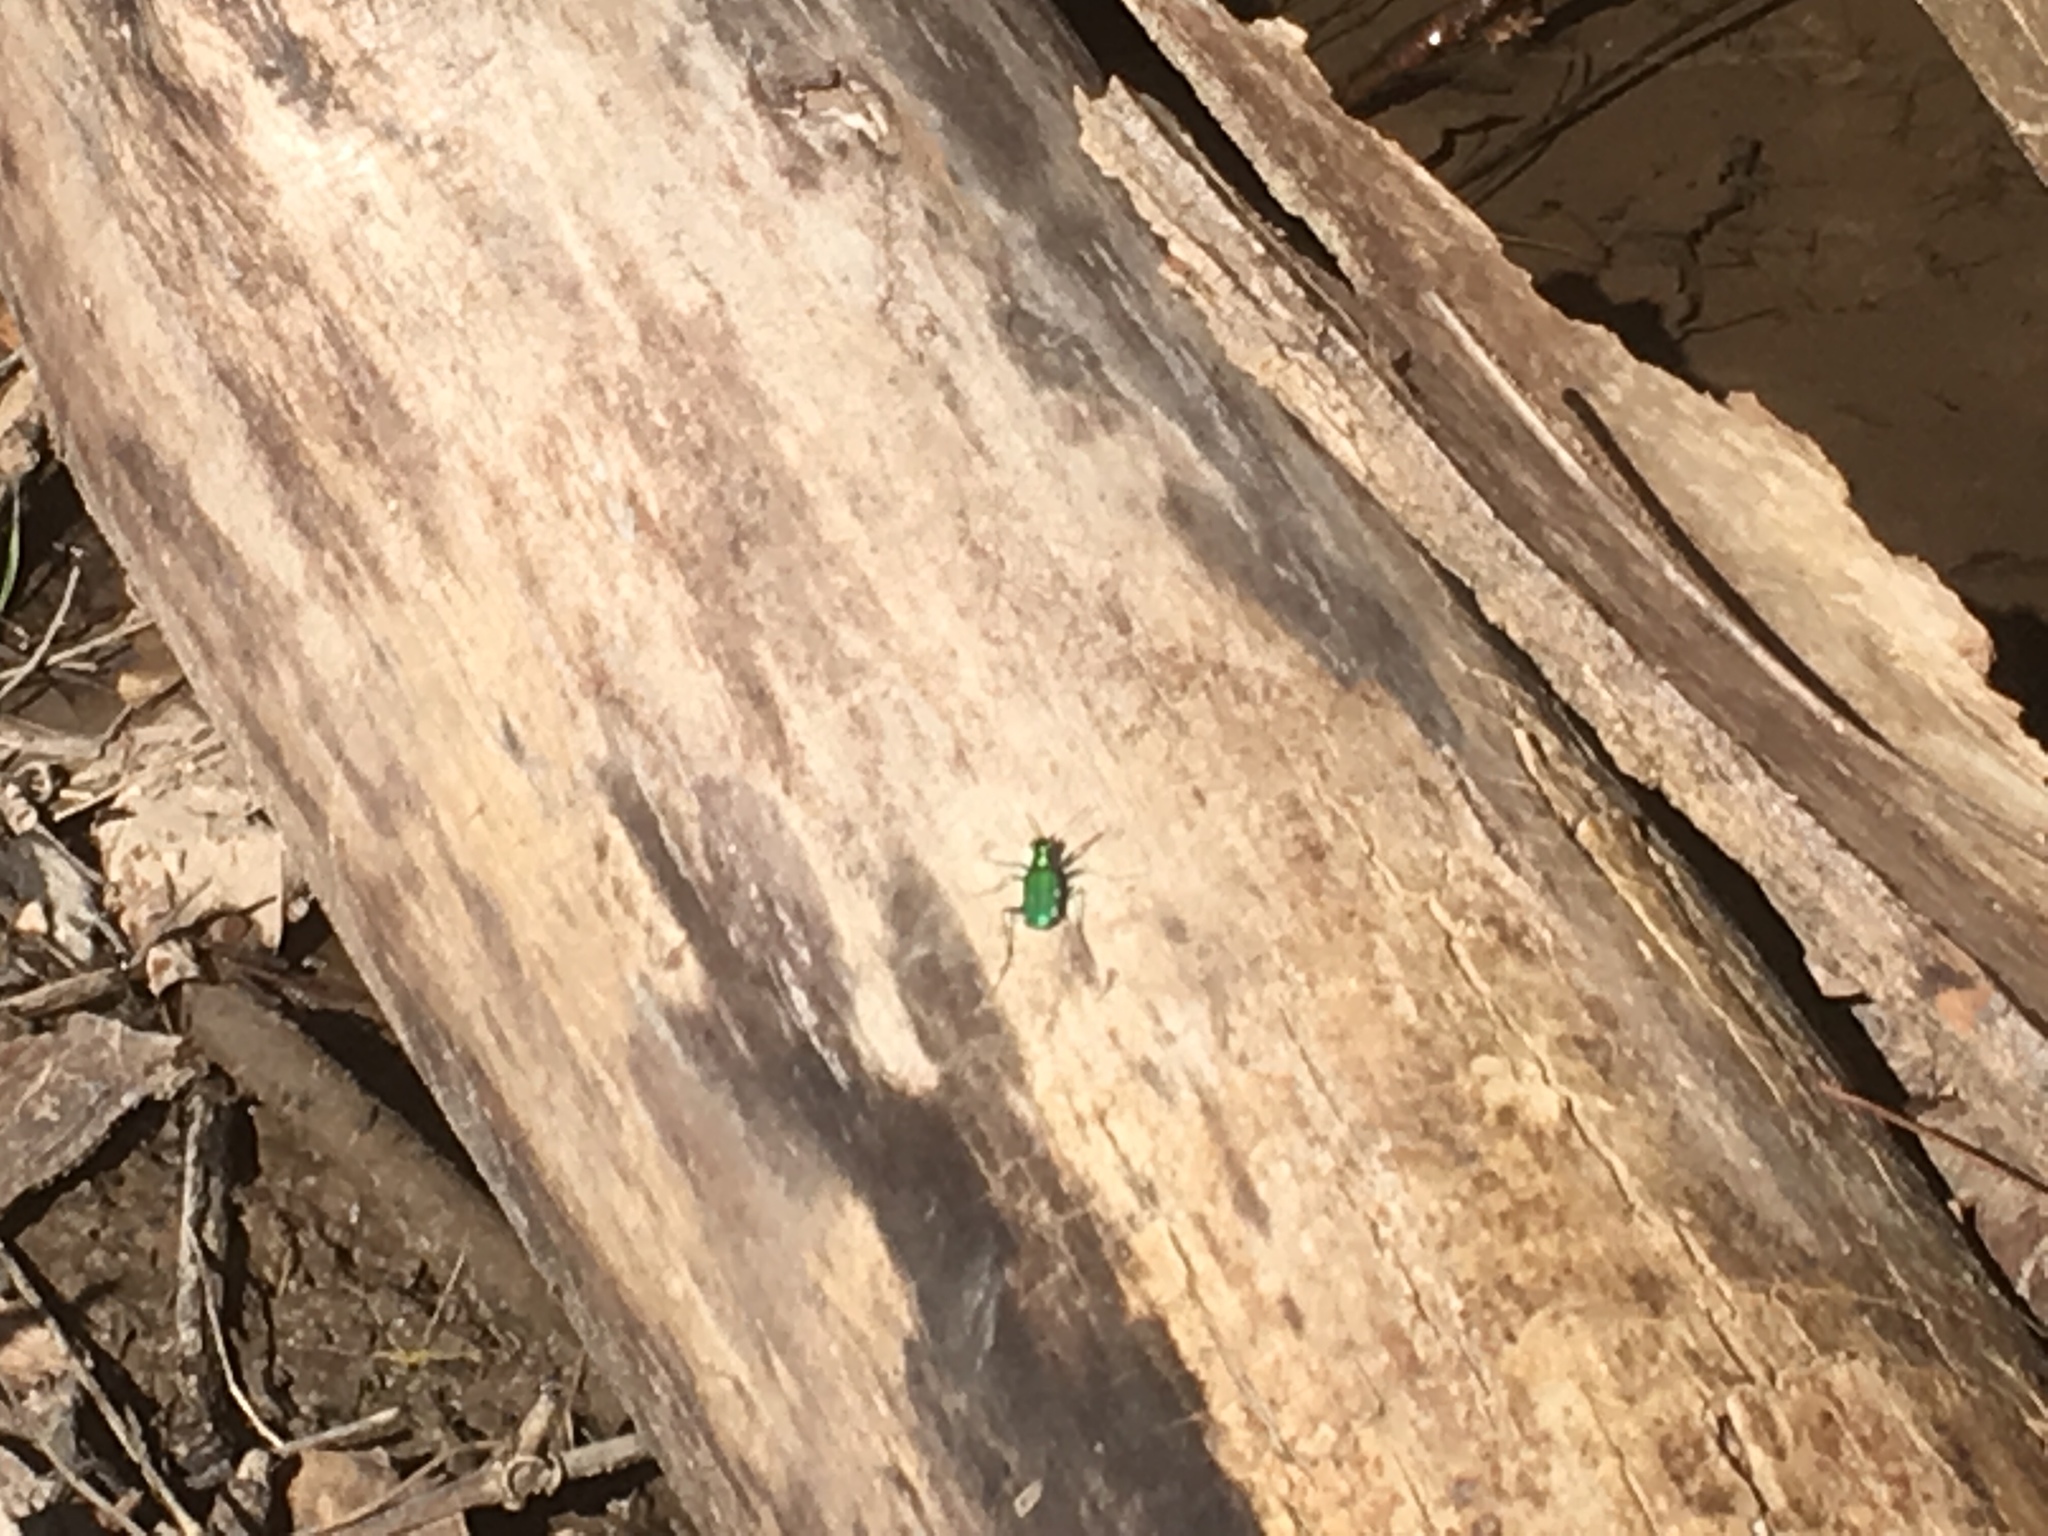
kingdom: Animalia
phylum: Arthropoda
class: Insecta
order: Coleoptera
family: Carabidae
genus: Cicindela
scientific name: Cicindela sexguttata
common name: Six-spotted tiger beetle
